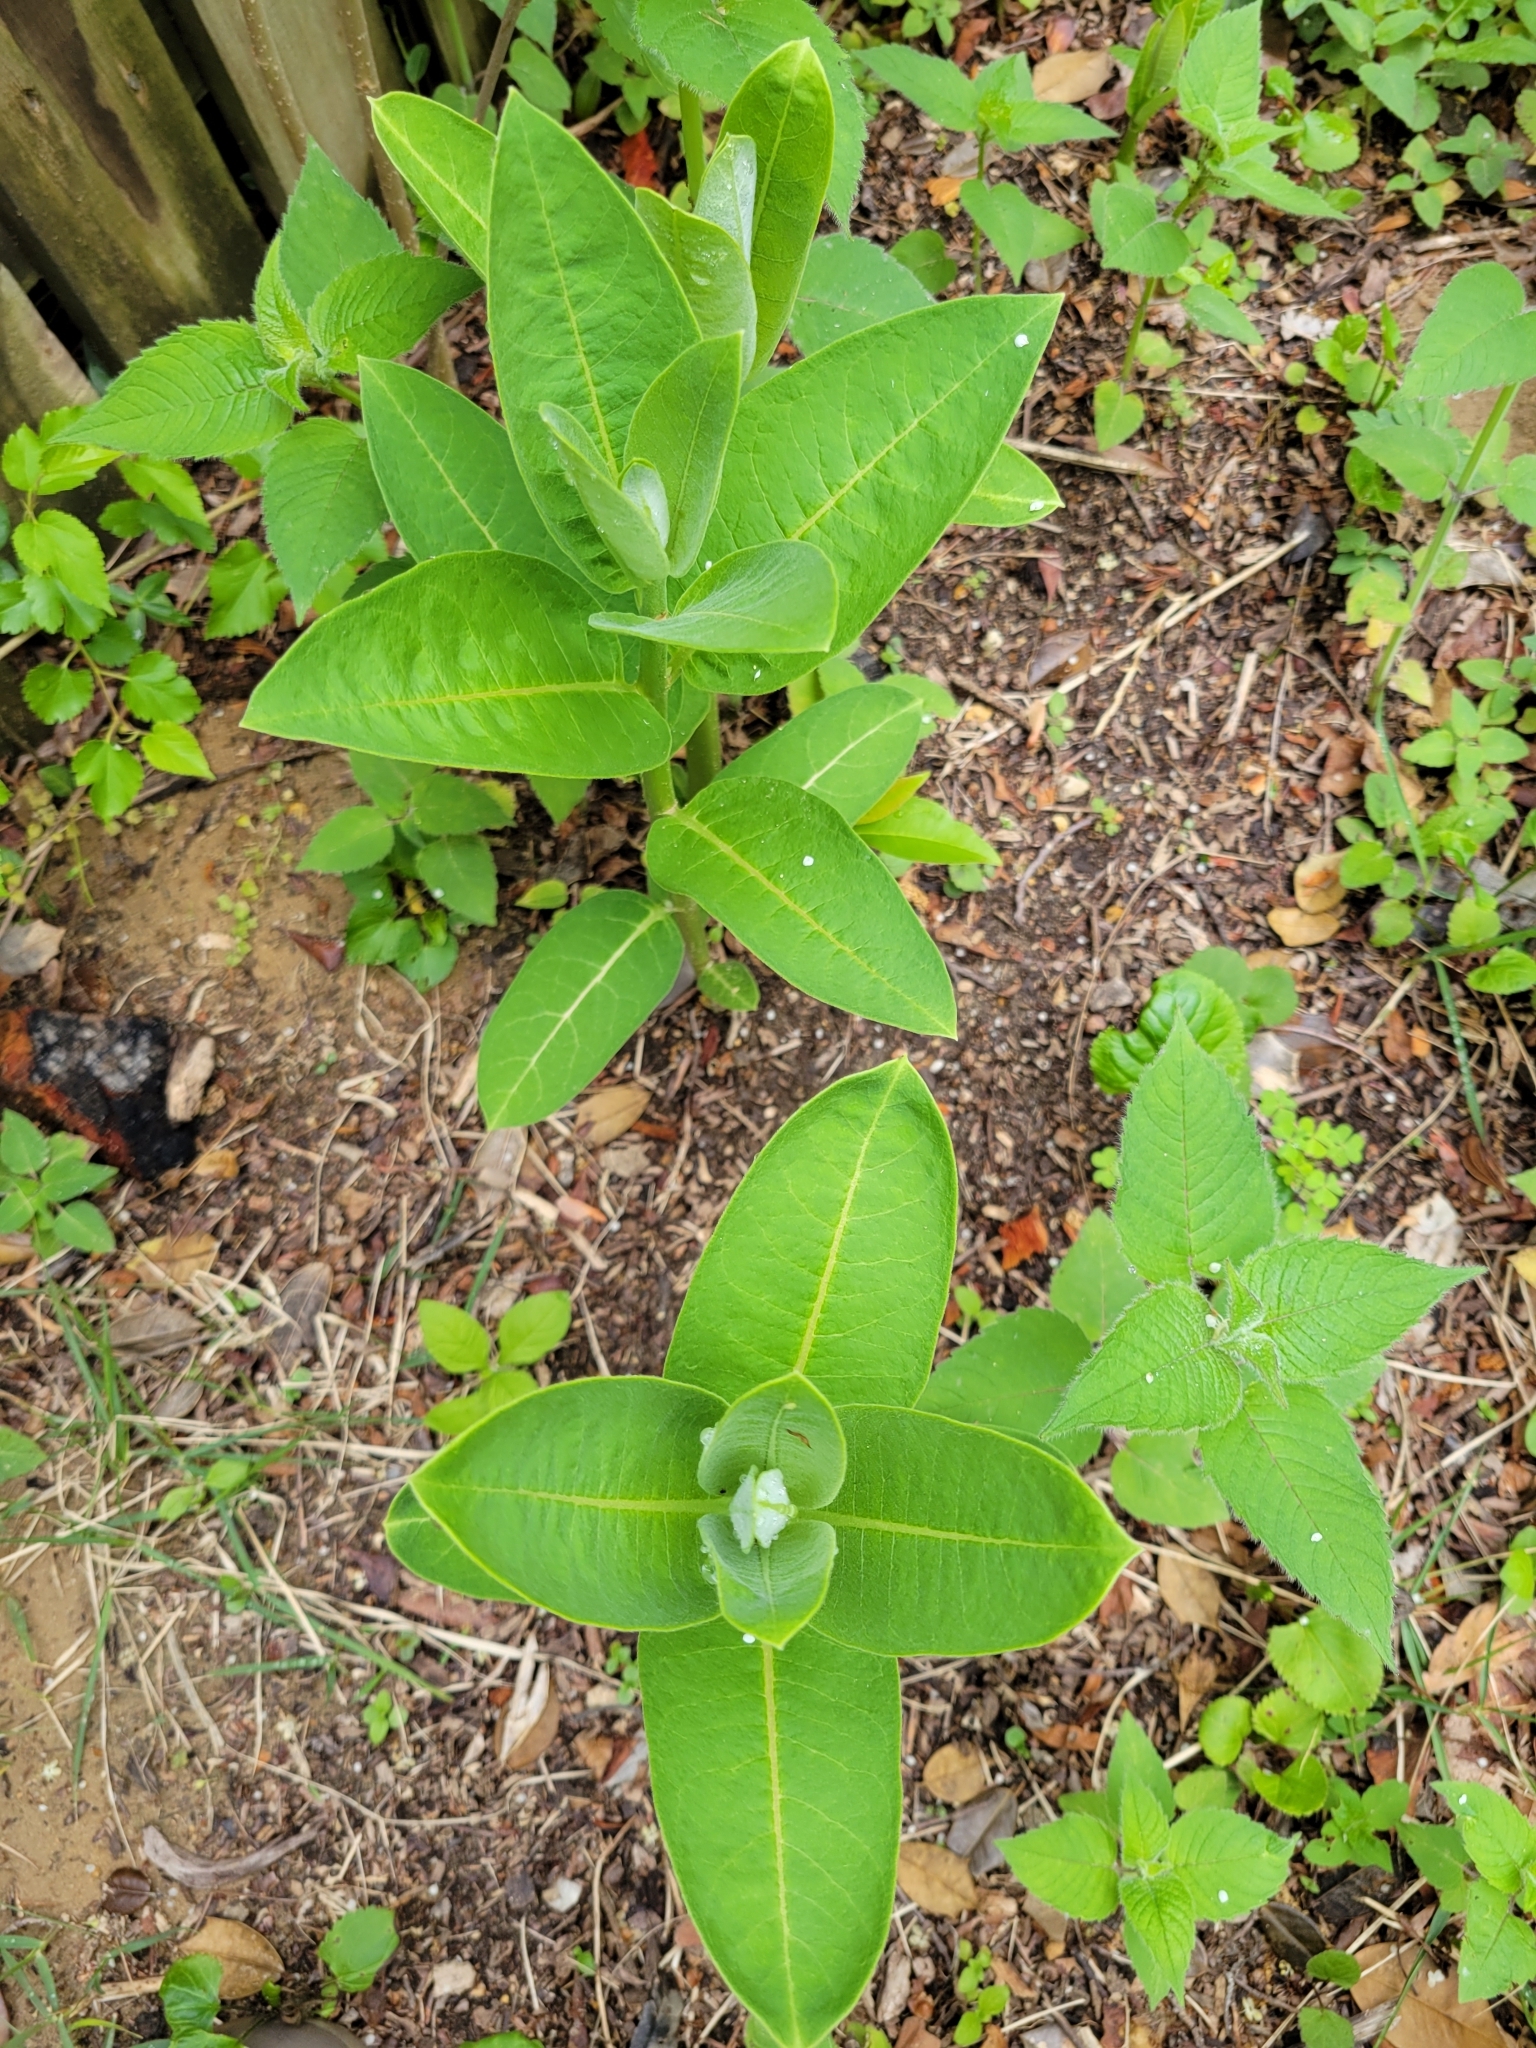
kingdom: Plantae
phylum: Tracheophyta
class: Magnoliopsida
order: Gentianales
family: Apocynaceae
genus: Asclepias
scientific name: Asclepias syriaca
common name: Common milkweed
